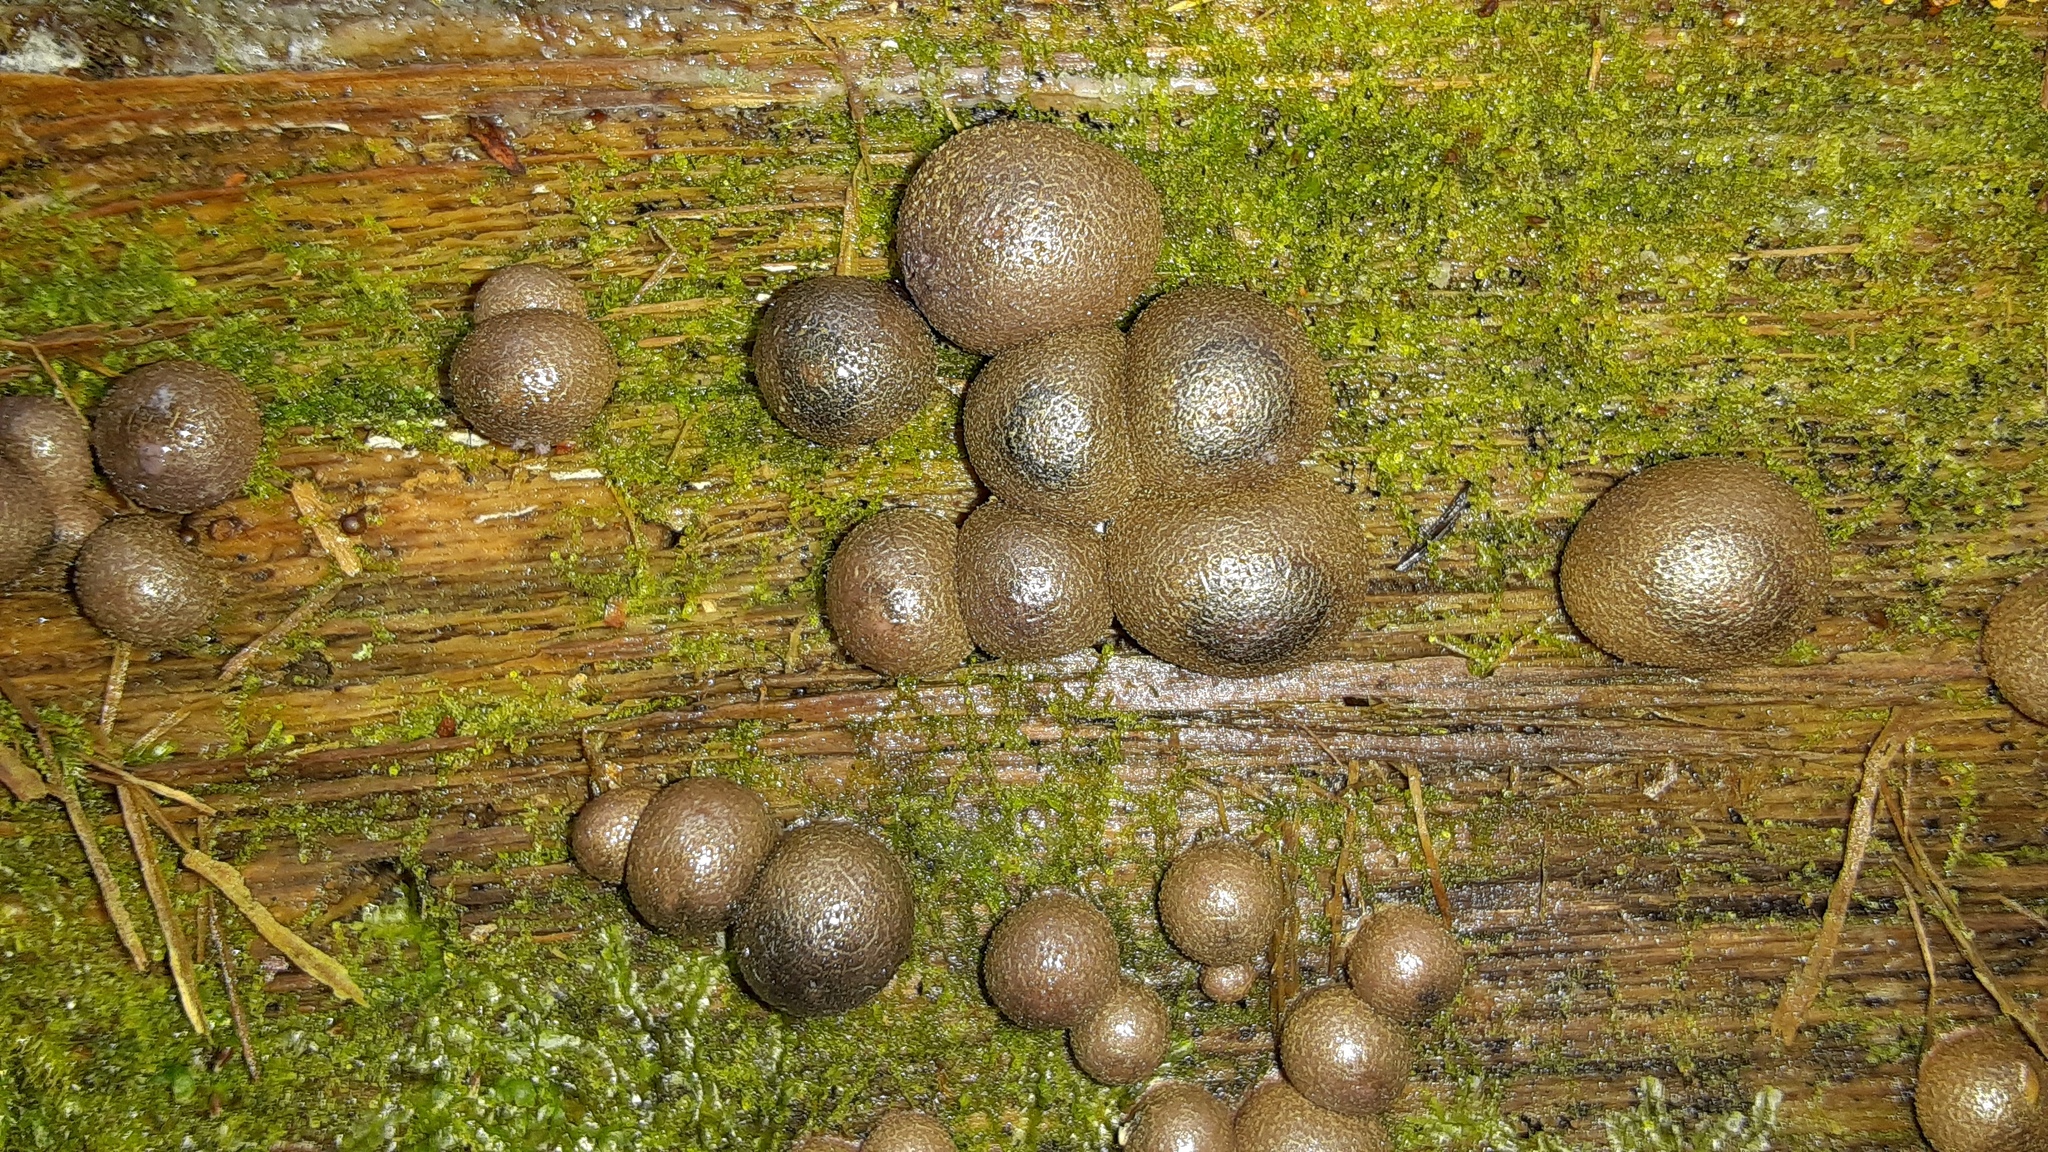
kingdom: Protozoa
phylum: Mycetozoa
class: Myxomycetes
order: Cribrariales
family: Tubiferaceae
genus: Lycogala
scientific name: Lycogala epidendrum
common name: Wolf's milk
